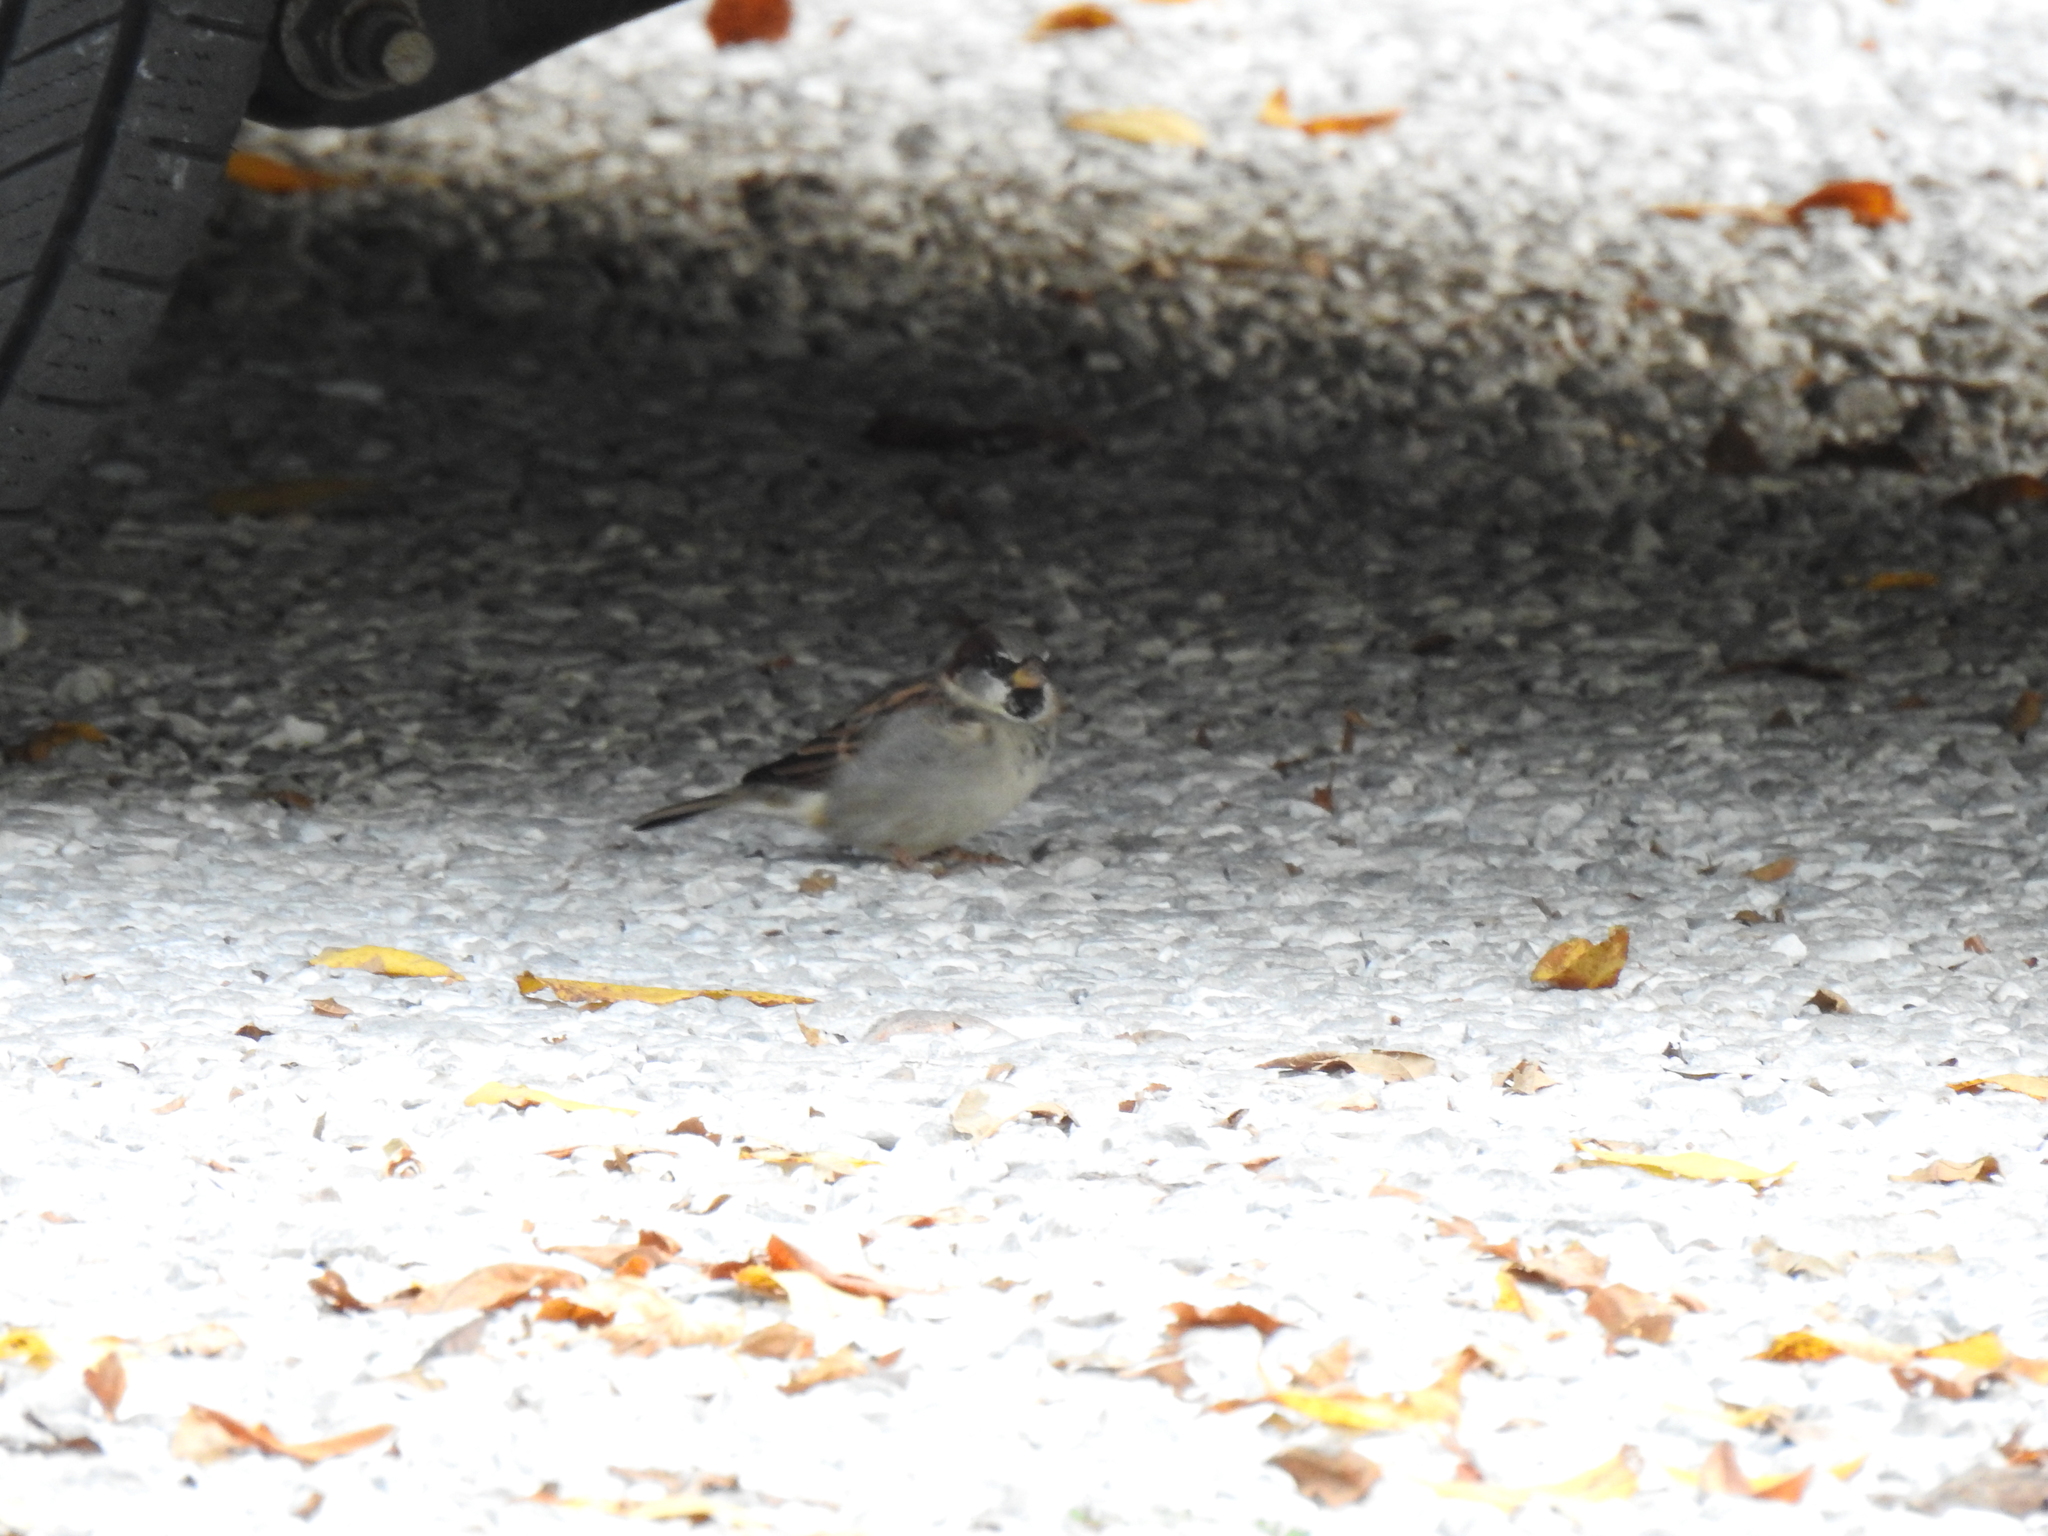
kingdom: Animalia
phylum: Chordata
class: Aves
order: Passeriformes
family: Passeridae
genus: Passer
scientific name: Passer domesticus
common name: House sparrow
